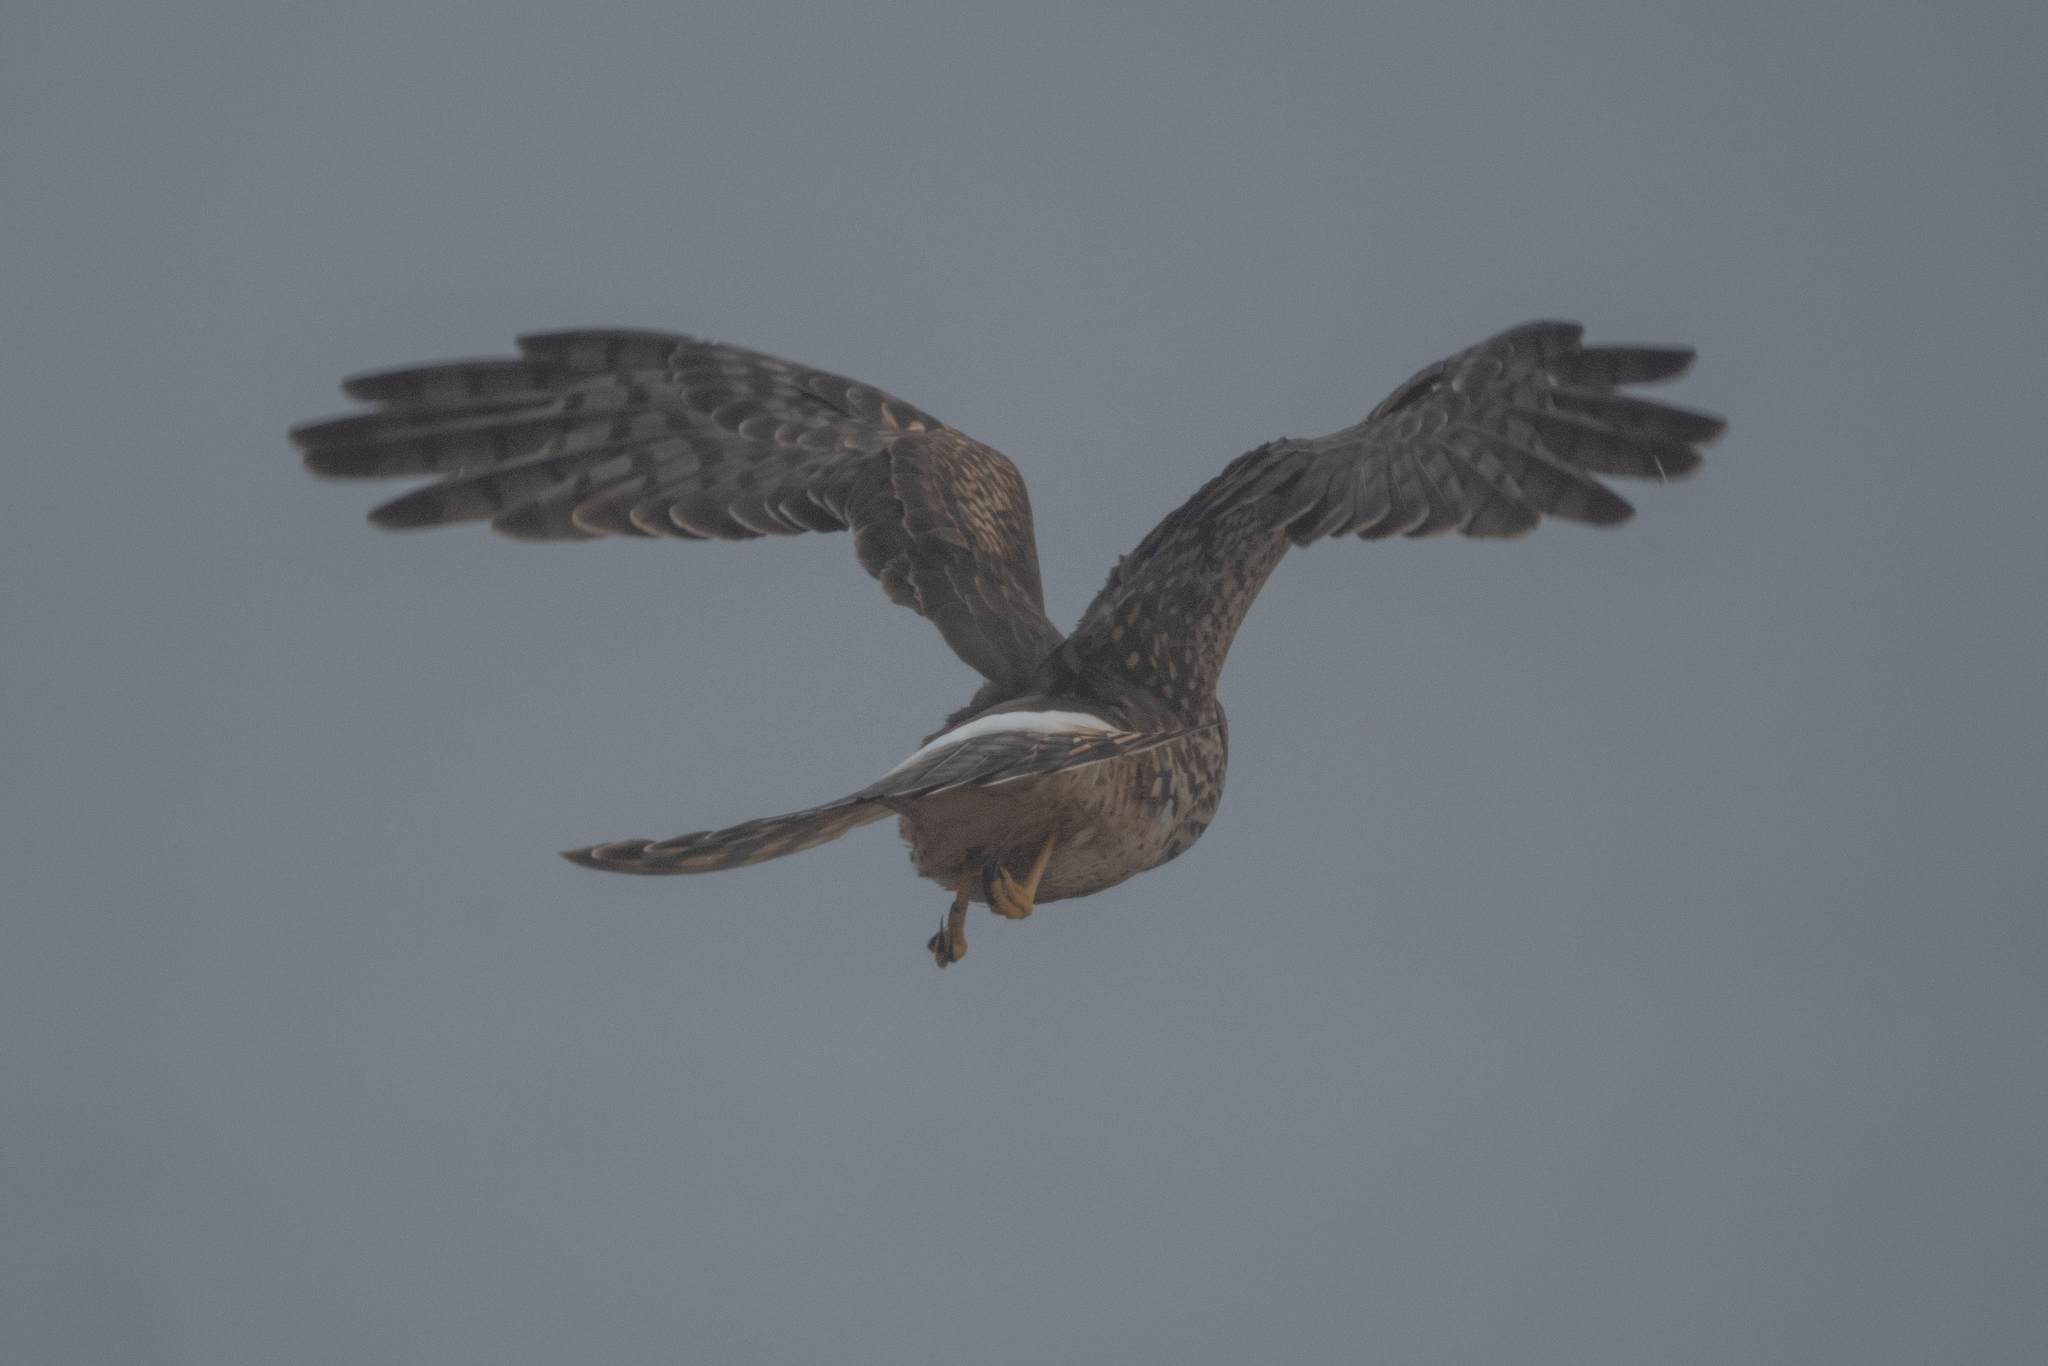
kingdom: Animalia
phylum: Chordata
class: Aves
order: Accipitriformes
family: Accipitridae
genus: Circus
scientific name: Circus cyaneus
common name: Hen harrier
